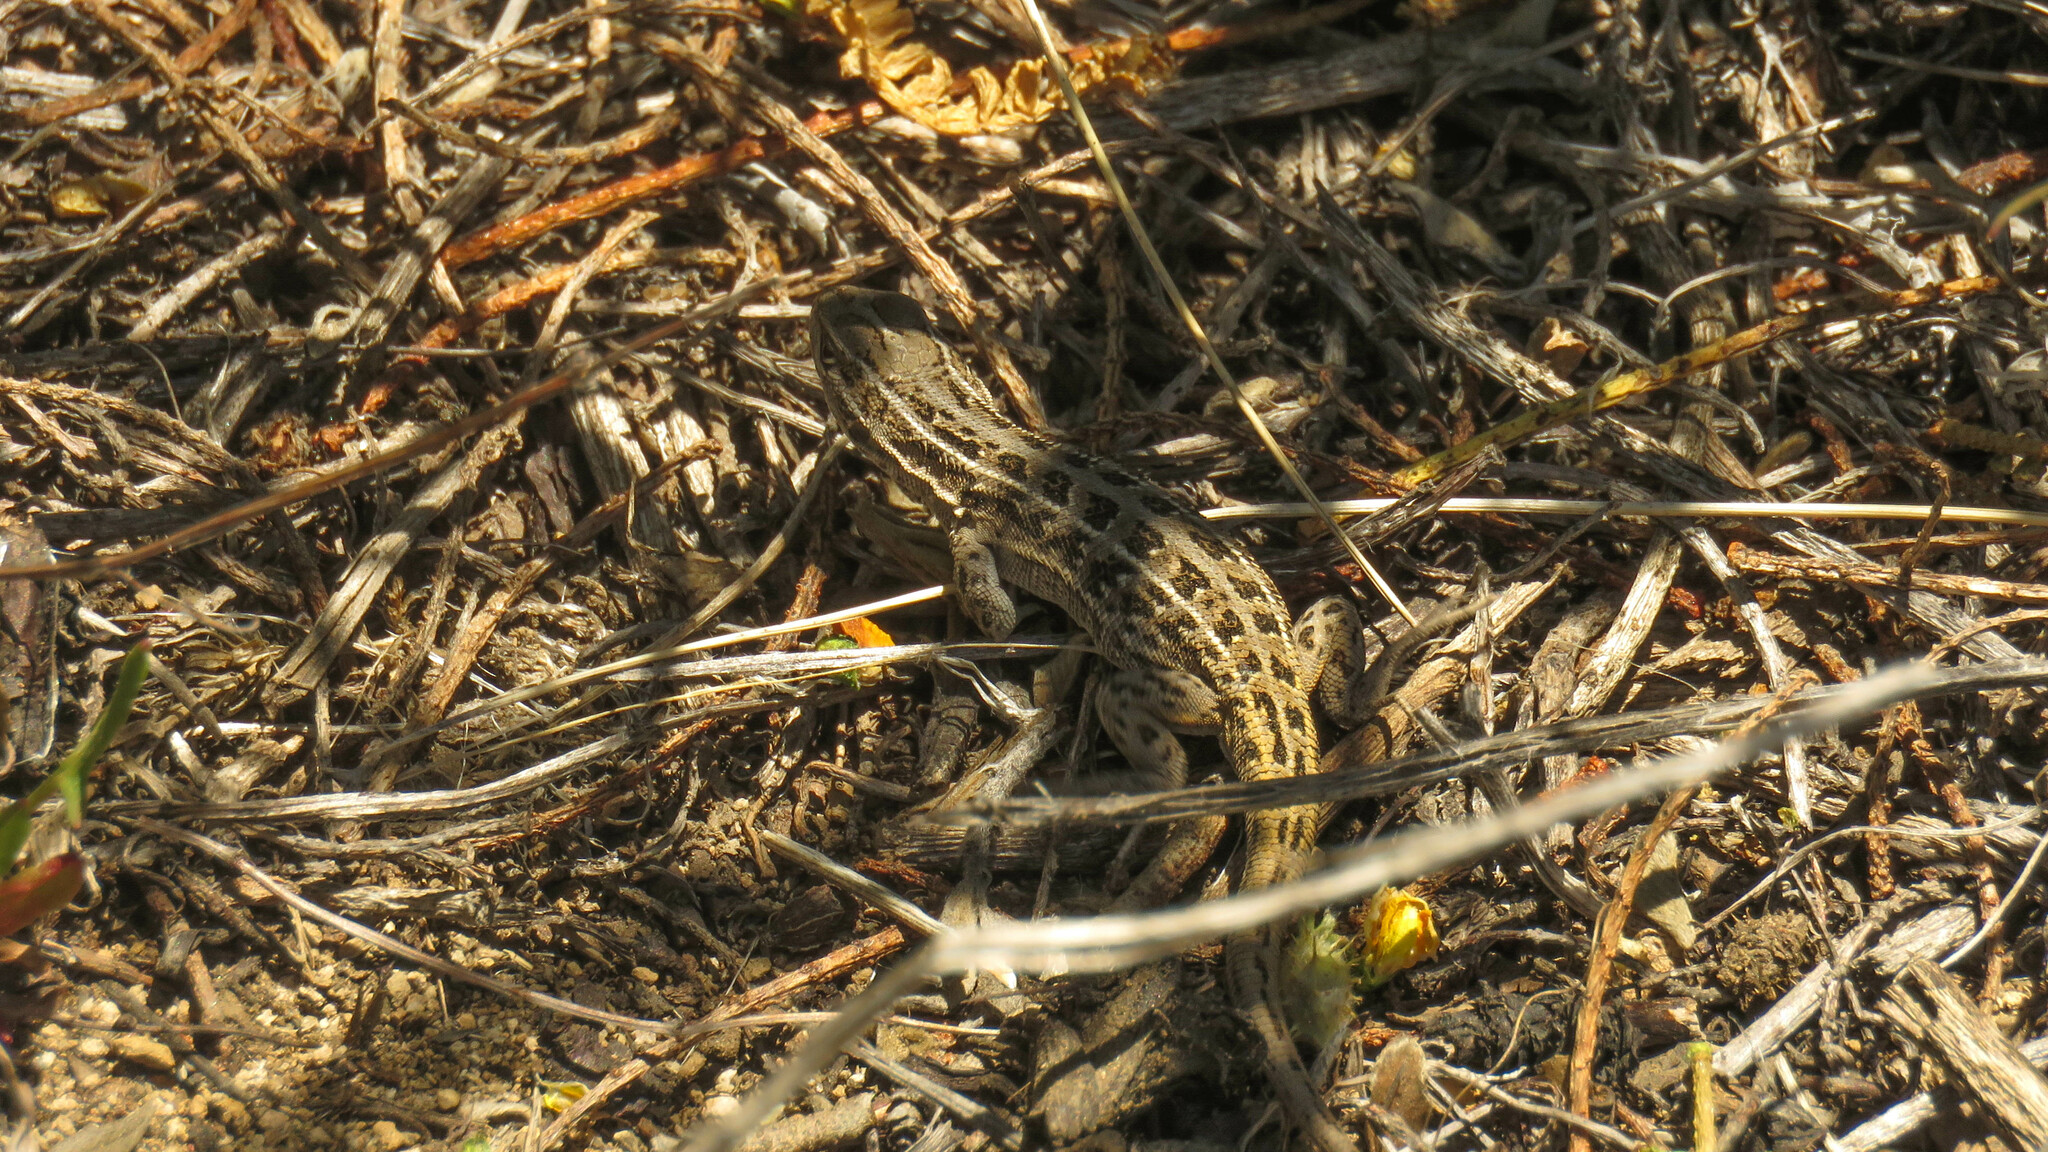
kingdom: Animalia
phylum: Chordata
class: Squamata
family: Liolaemidae
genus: Liolaemus
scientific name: Liolaemus lineomaculatus
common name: Decorated tree iguana
